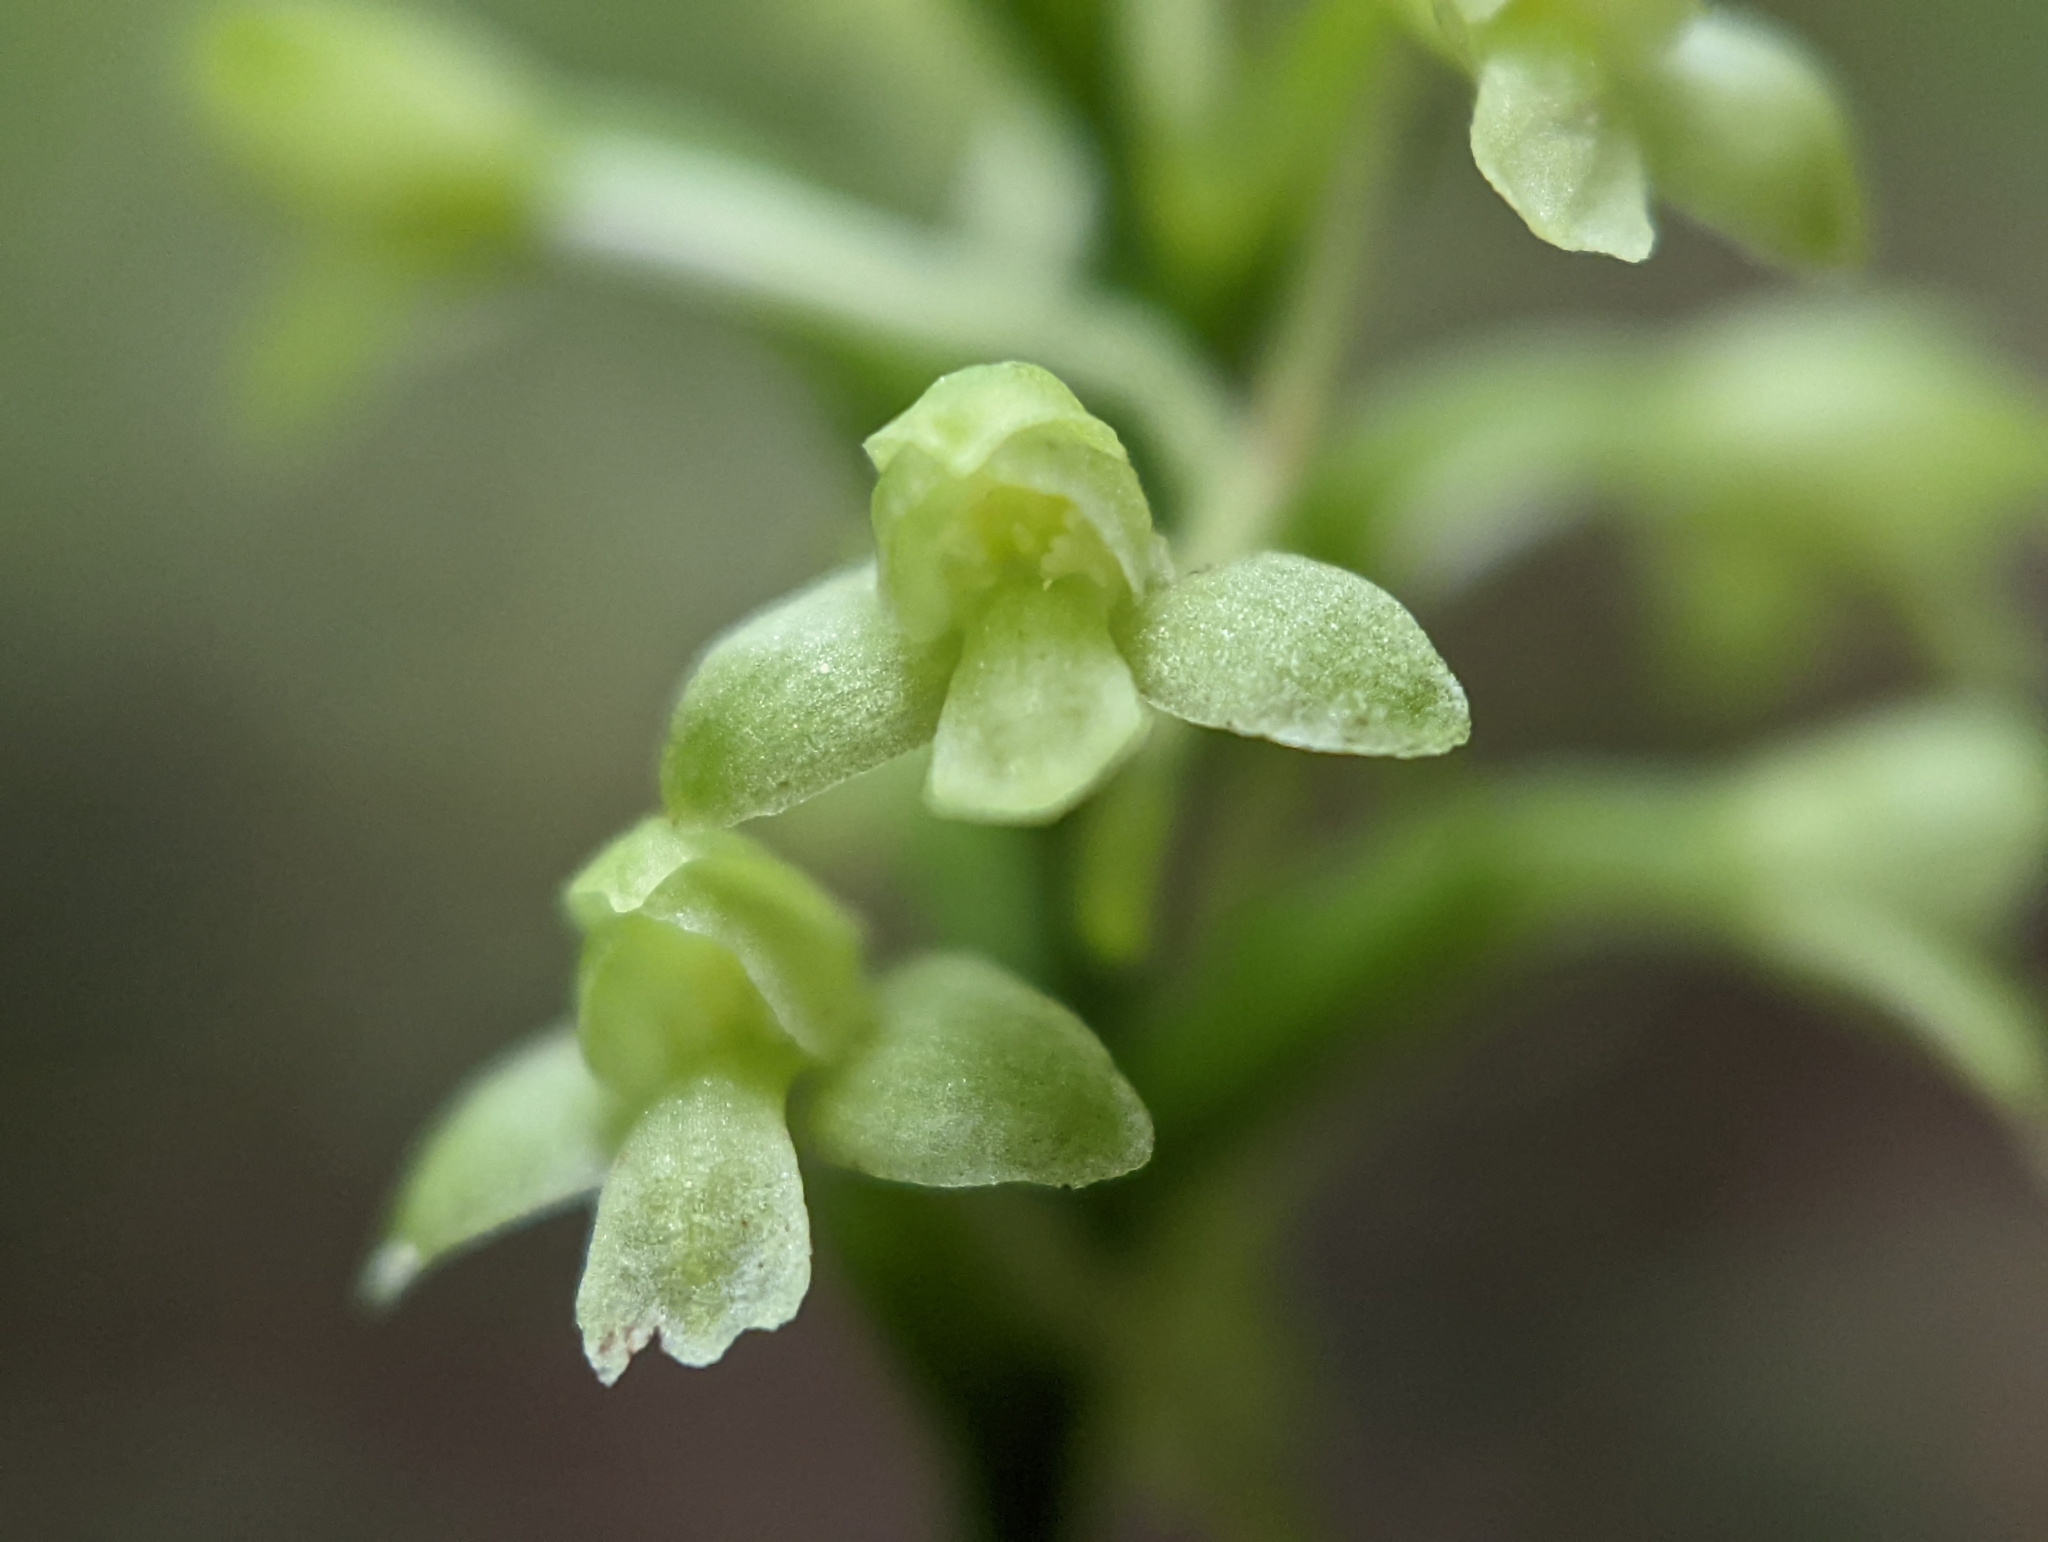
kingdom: Plantae
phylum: Tracheophyta
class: Liliopsida
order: Asparagales
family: Orchidaceae
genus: Platanthera
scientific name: Platanthera clavellata
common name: Club-spur orchid
